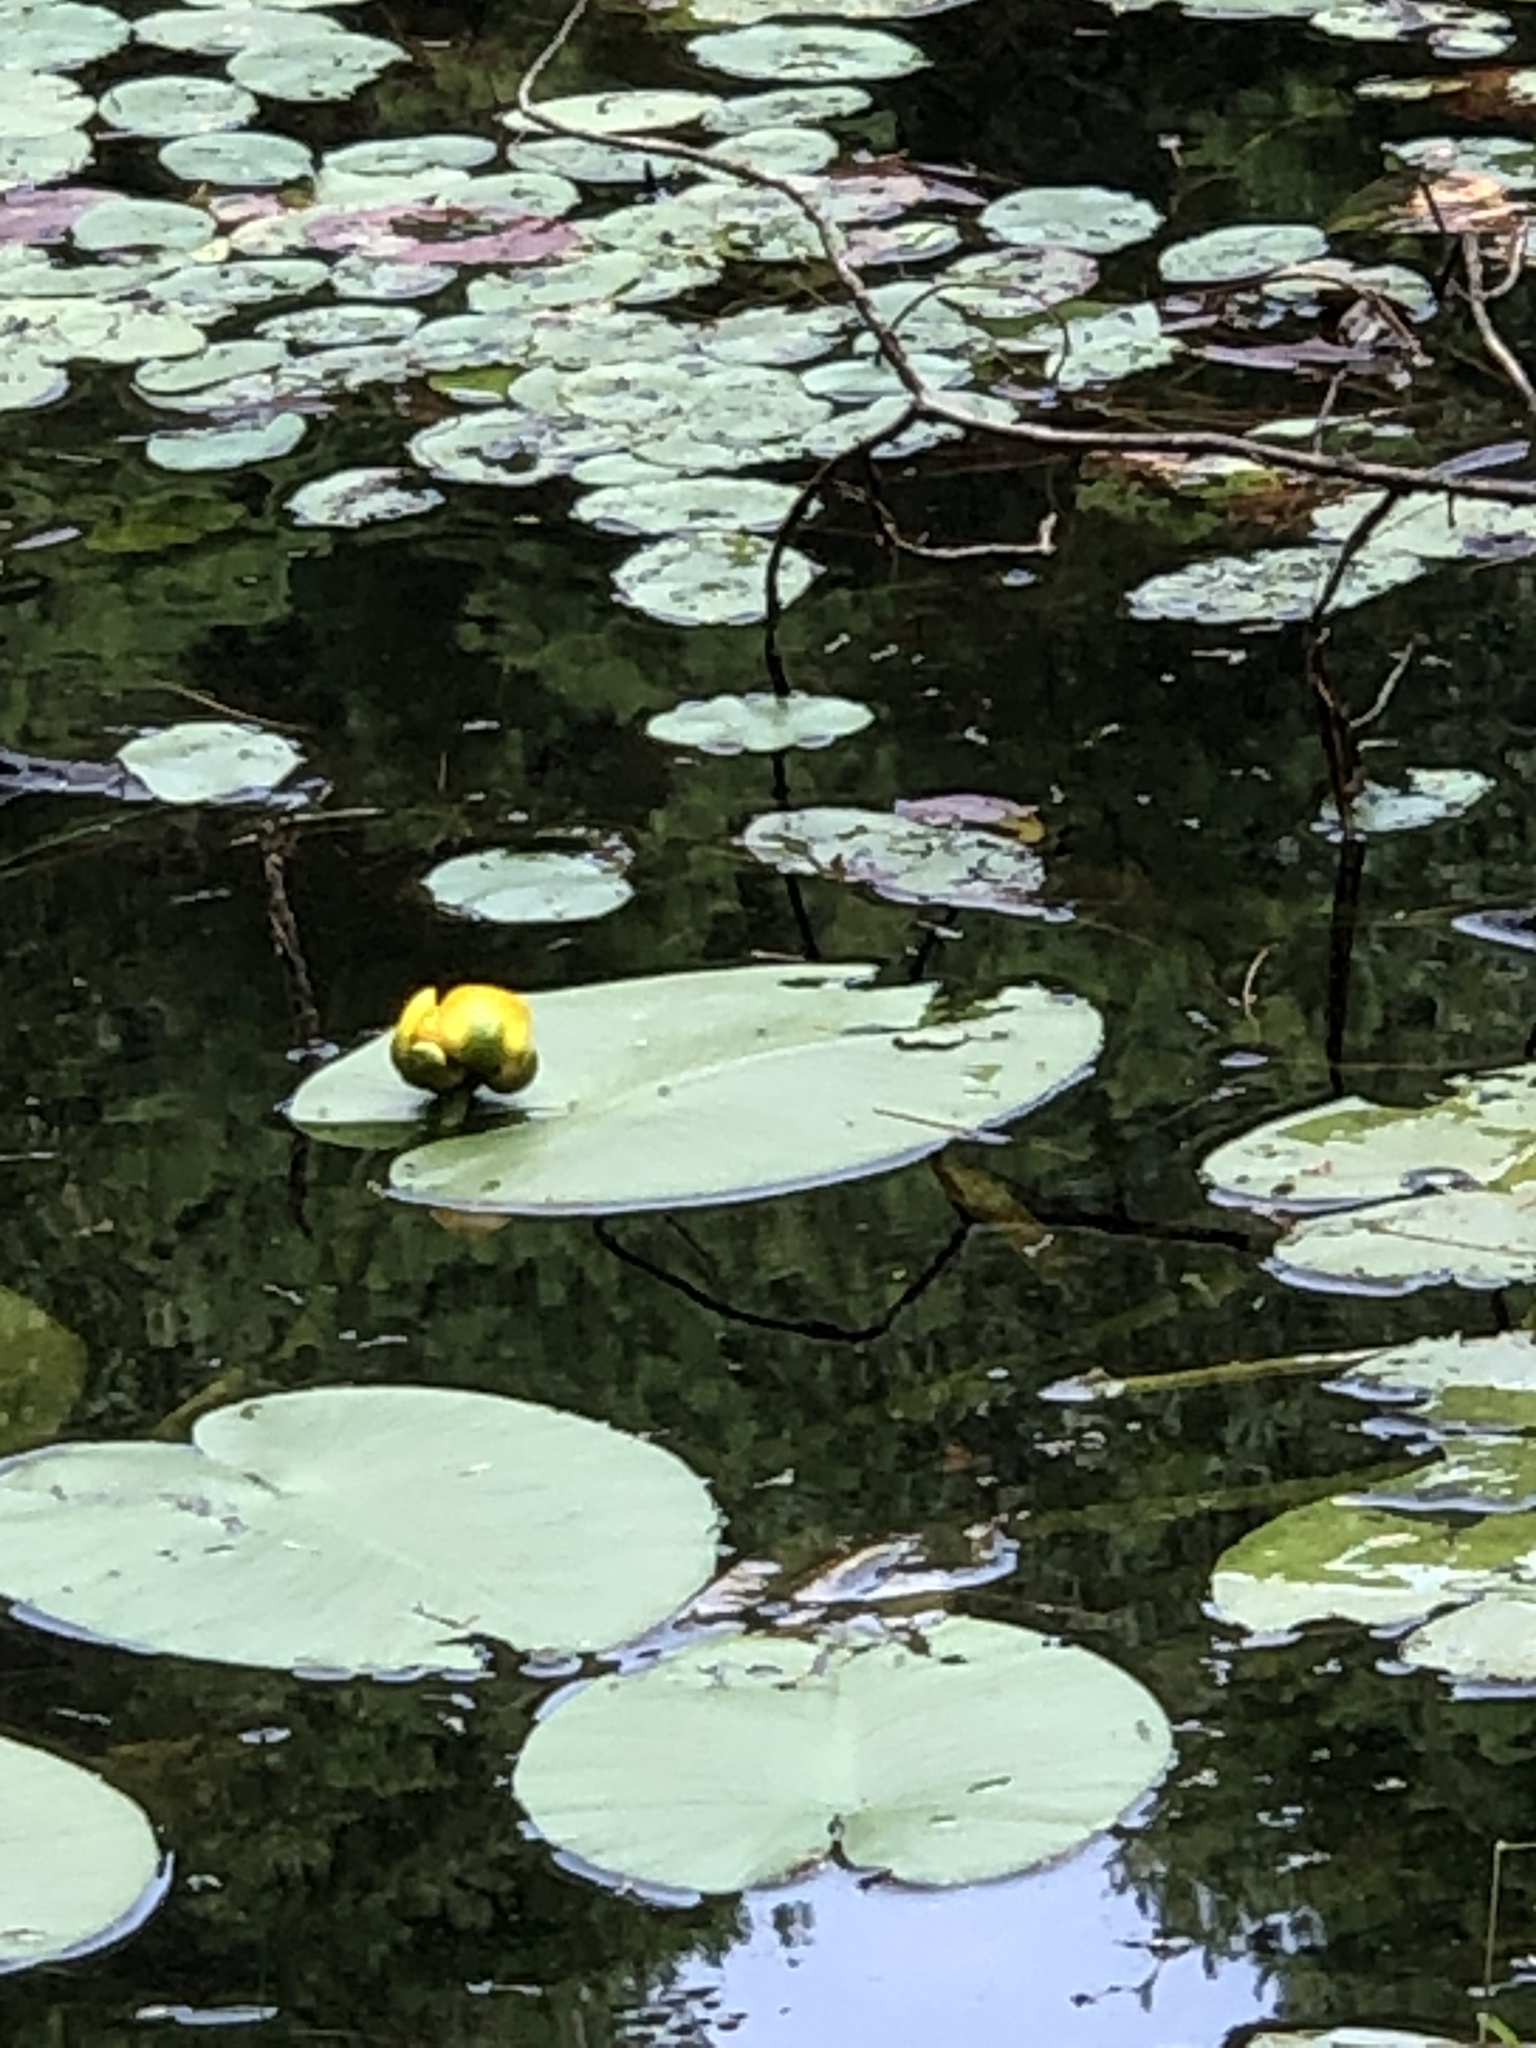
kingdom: Plantae
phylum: Tracheophyta
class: Magnoliopsida
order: Nymphaeales
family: Nymphaeaceae
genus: Nuphar
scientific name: Nuphar variegata
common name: Beaver-root
